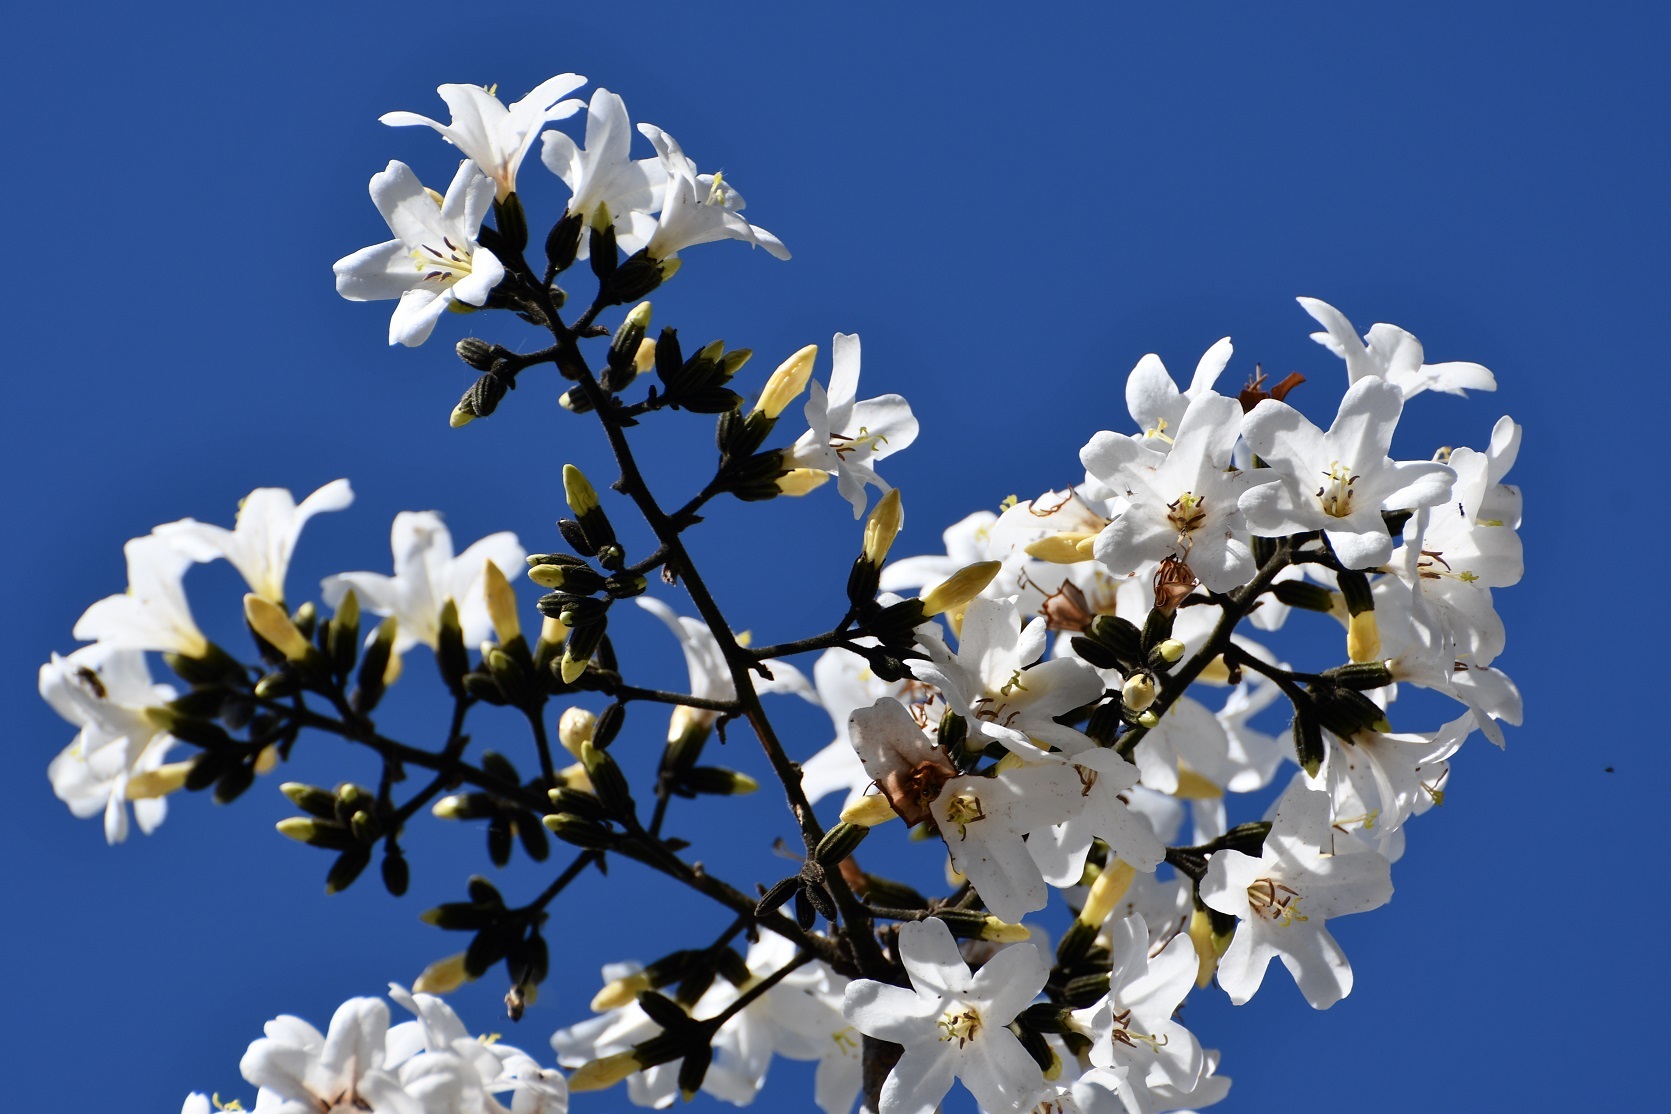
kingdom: Plantae
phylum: Tracheophyta
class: Magnoliopsida
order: Boraginales
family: Cordiaceae
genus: Cordia
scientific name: Cordia alliodora
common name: Spanish elm
